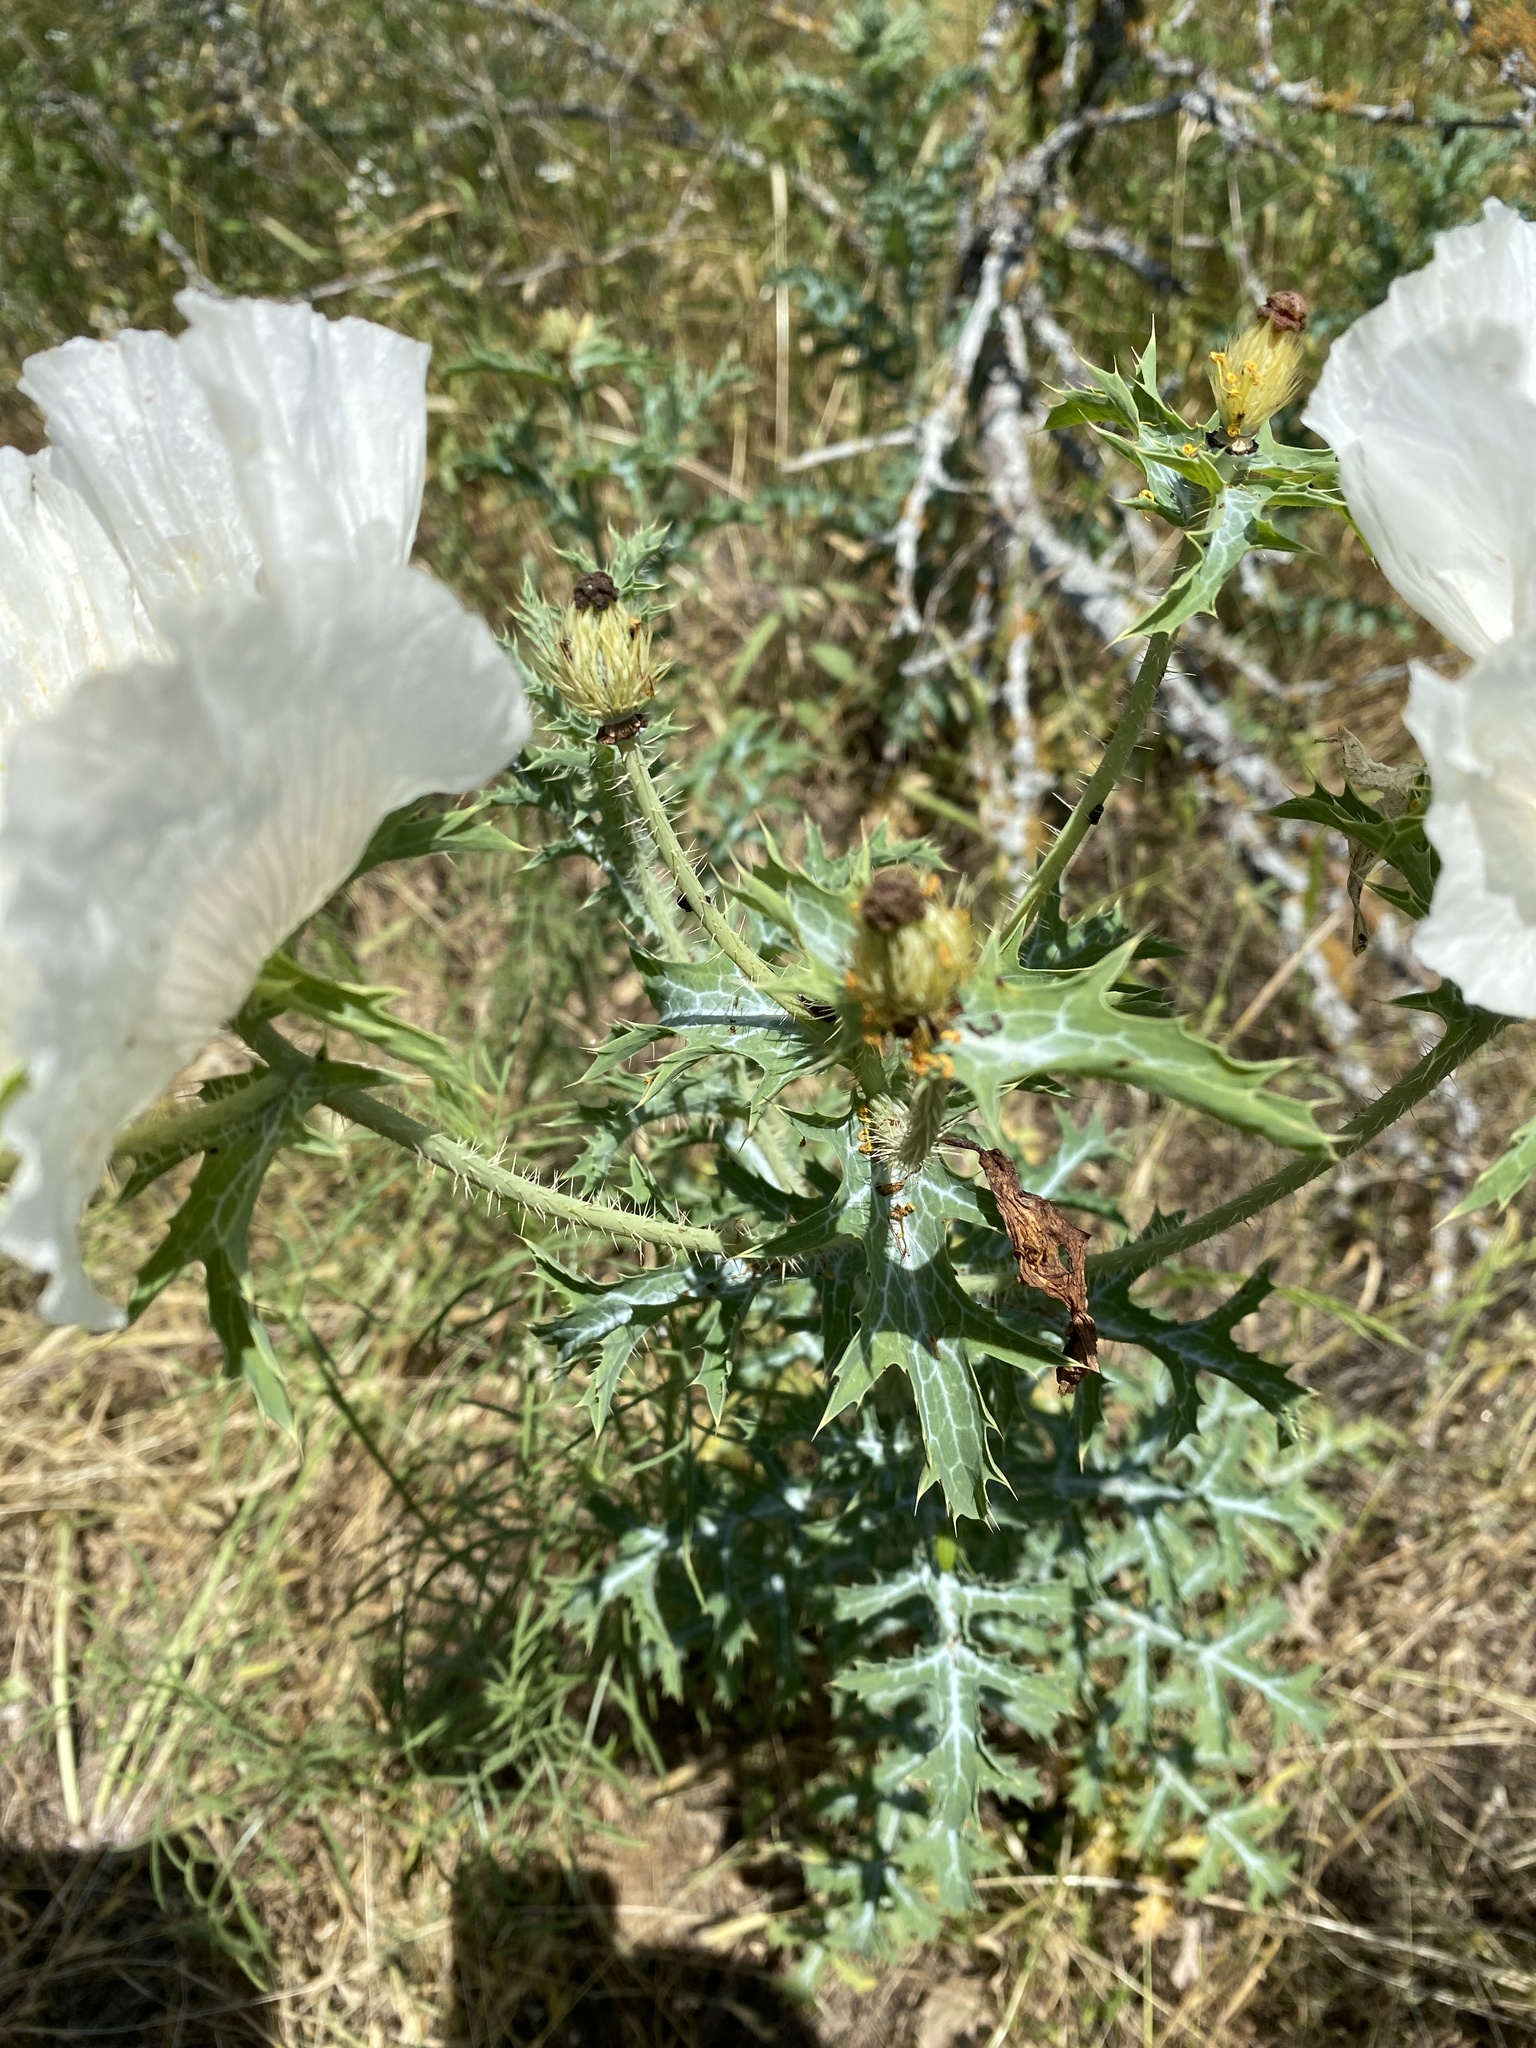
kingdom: Plantae
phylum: Tracheophyta
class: Magnoliopsida
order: Ranunculales
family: Papaveraceae
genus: Argemone
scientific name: Argemone albiflora
